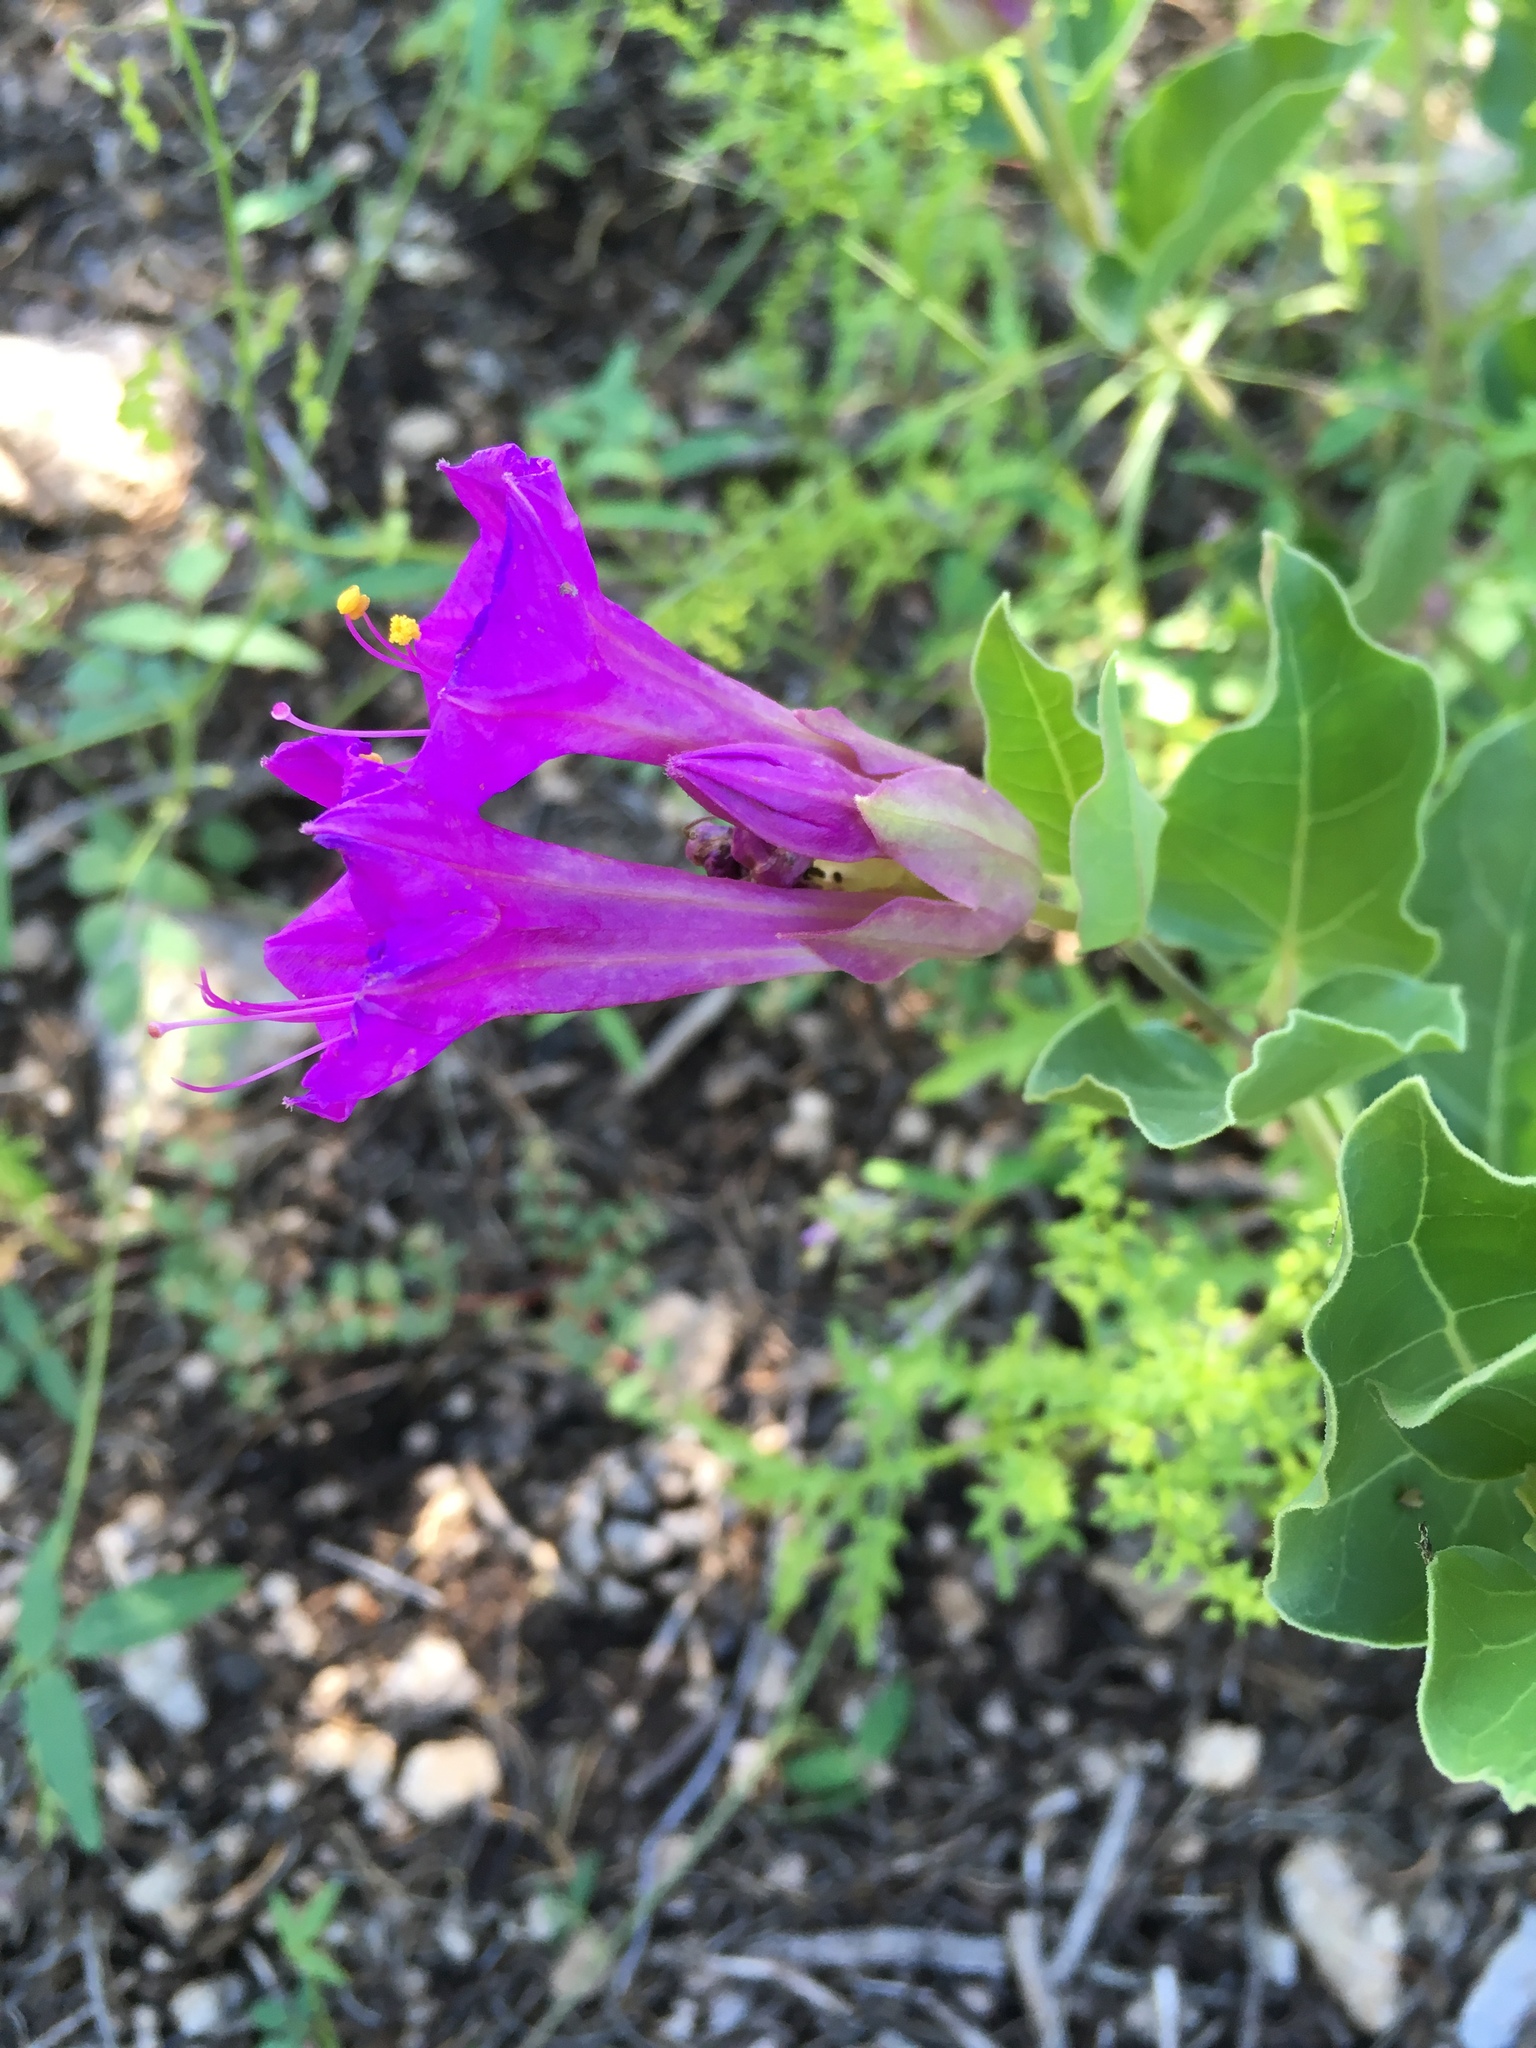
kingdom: Plantae
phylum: Tracheophyta
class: Magnoliopsida
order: Caryophyllales
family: Nyctaginaceae
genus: Mirabilis
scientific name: Mirabilis multiflora
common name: Froebel's four-o'clock
